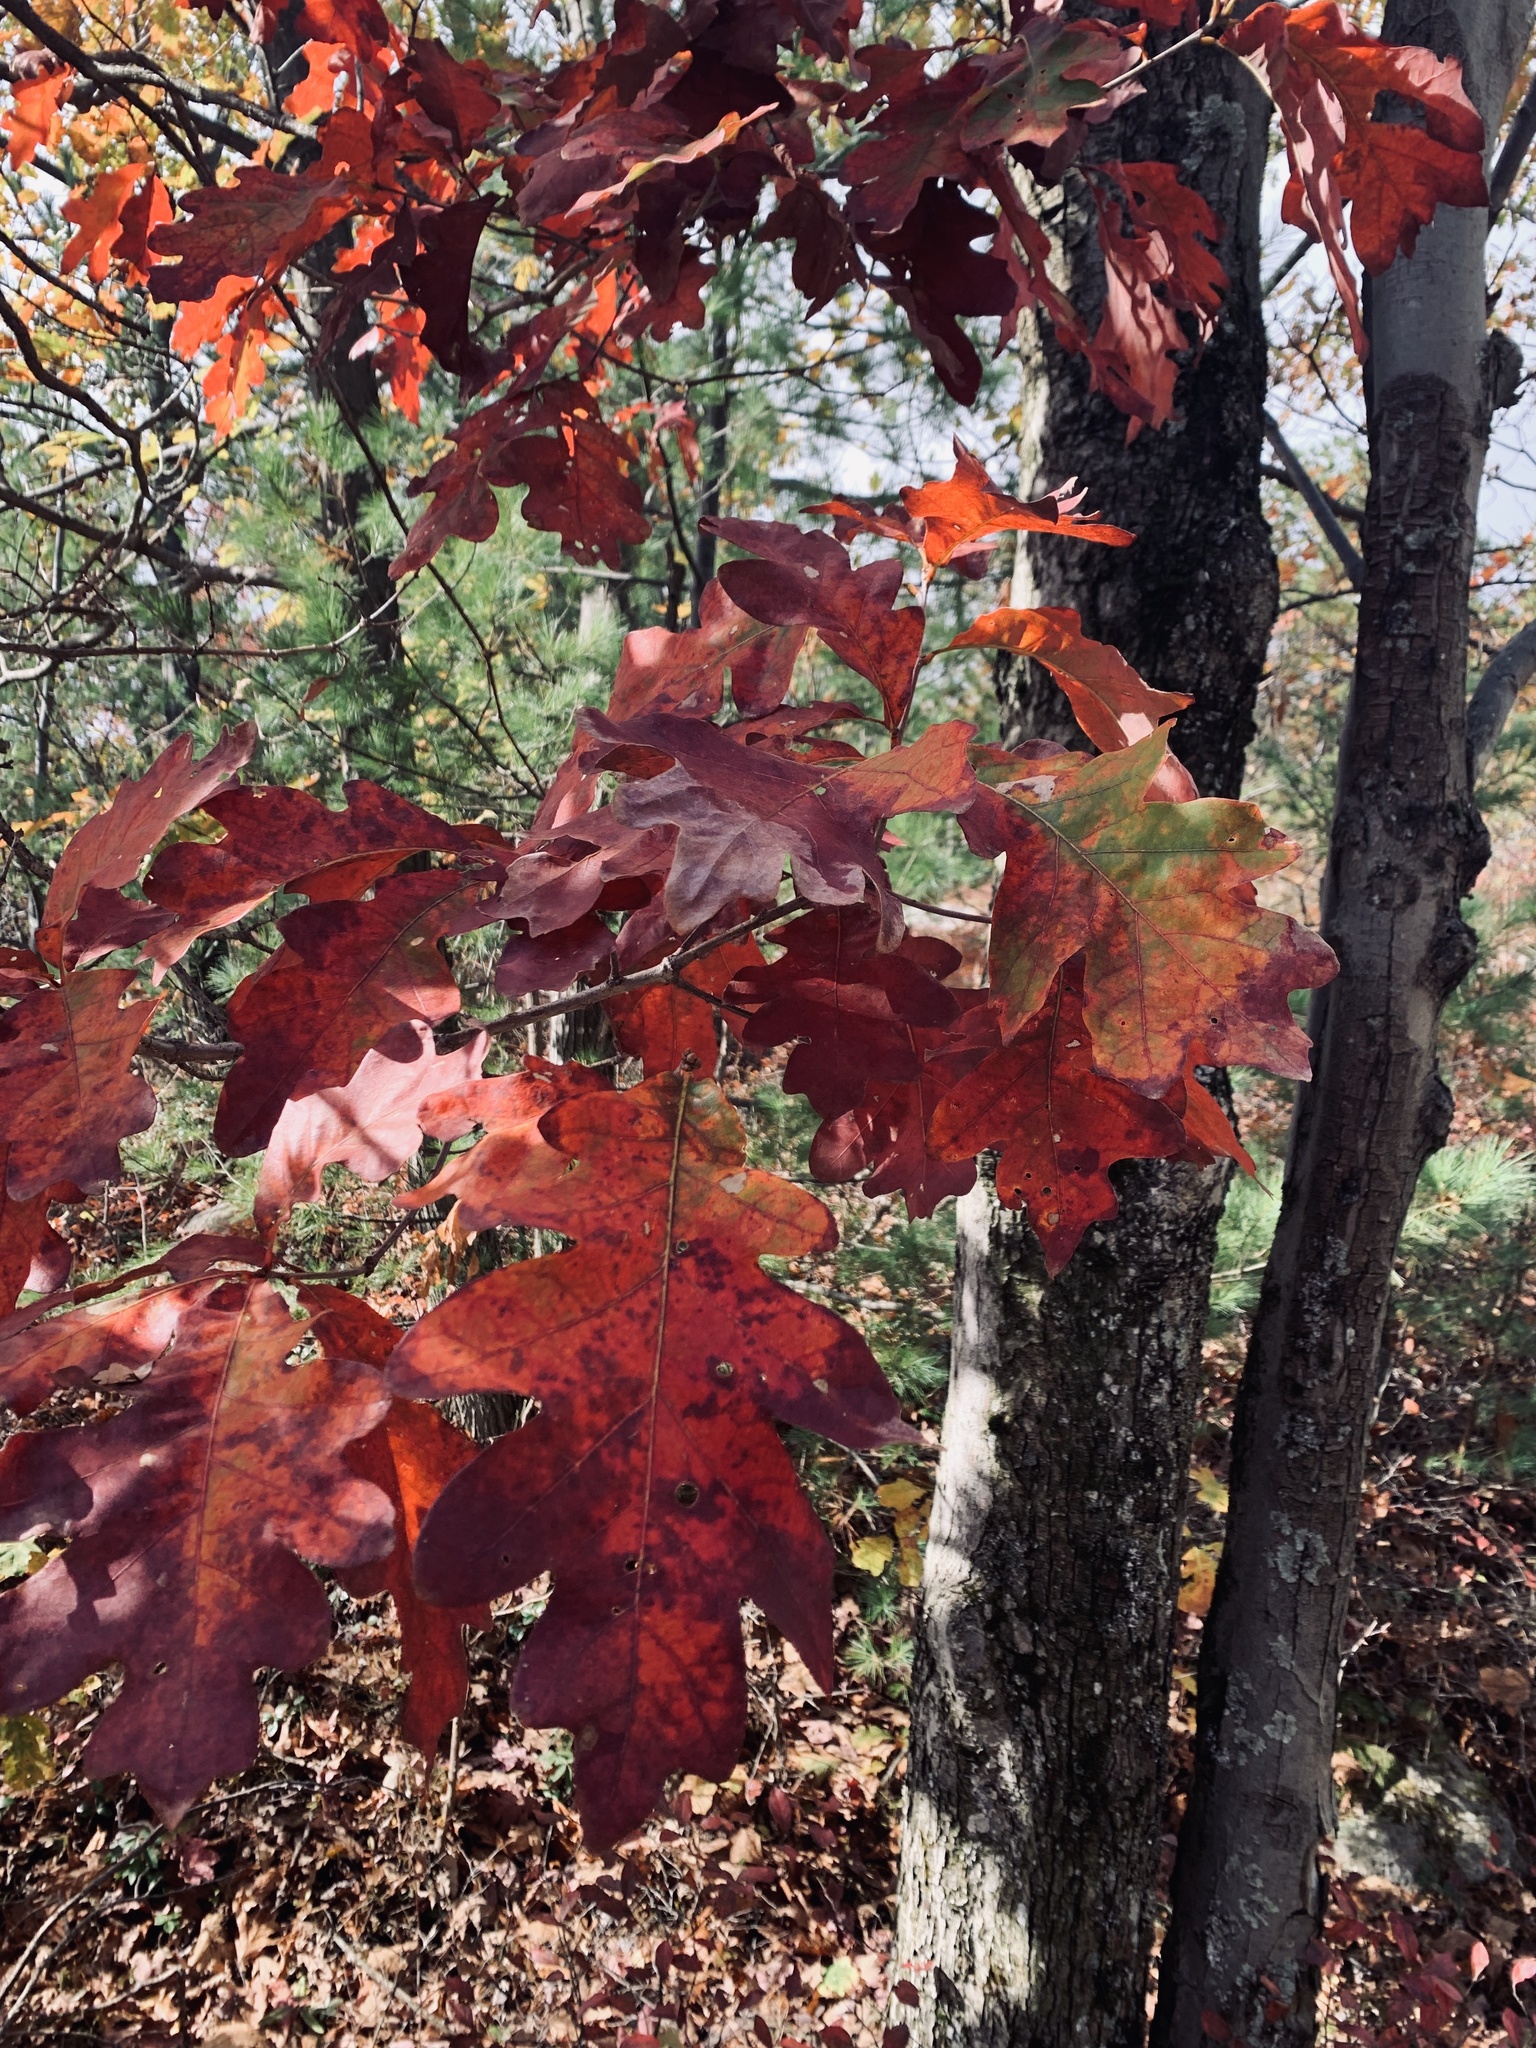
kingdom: Plantae
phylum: Tracheophyta
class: Magnoliopsida
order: Fagales
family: Fagaceae
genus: Quercus
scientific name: Quercus alba
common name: White oak
